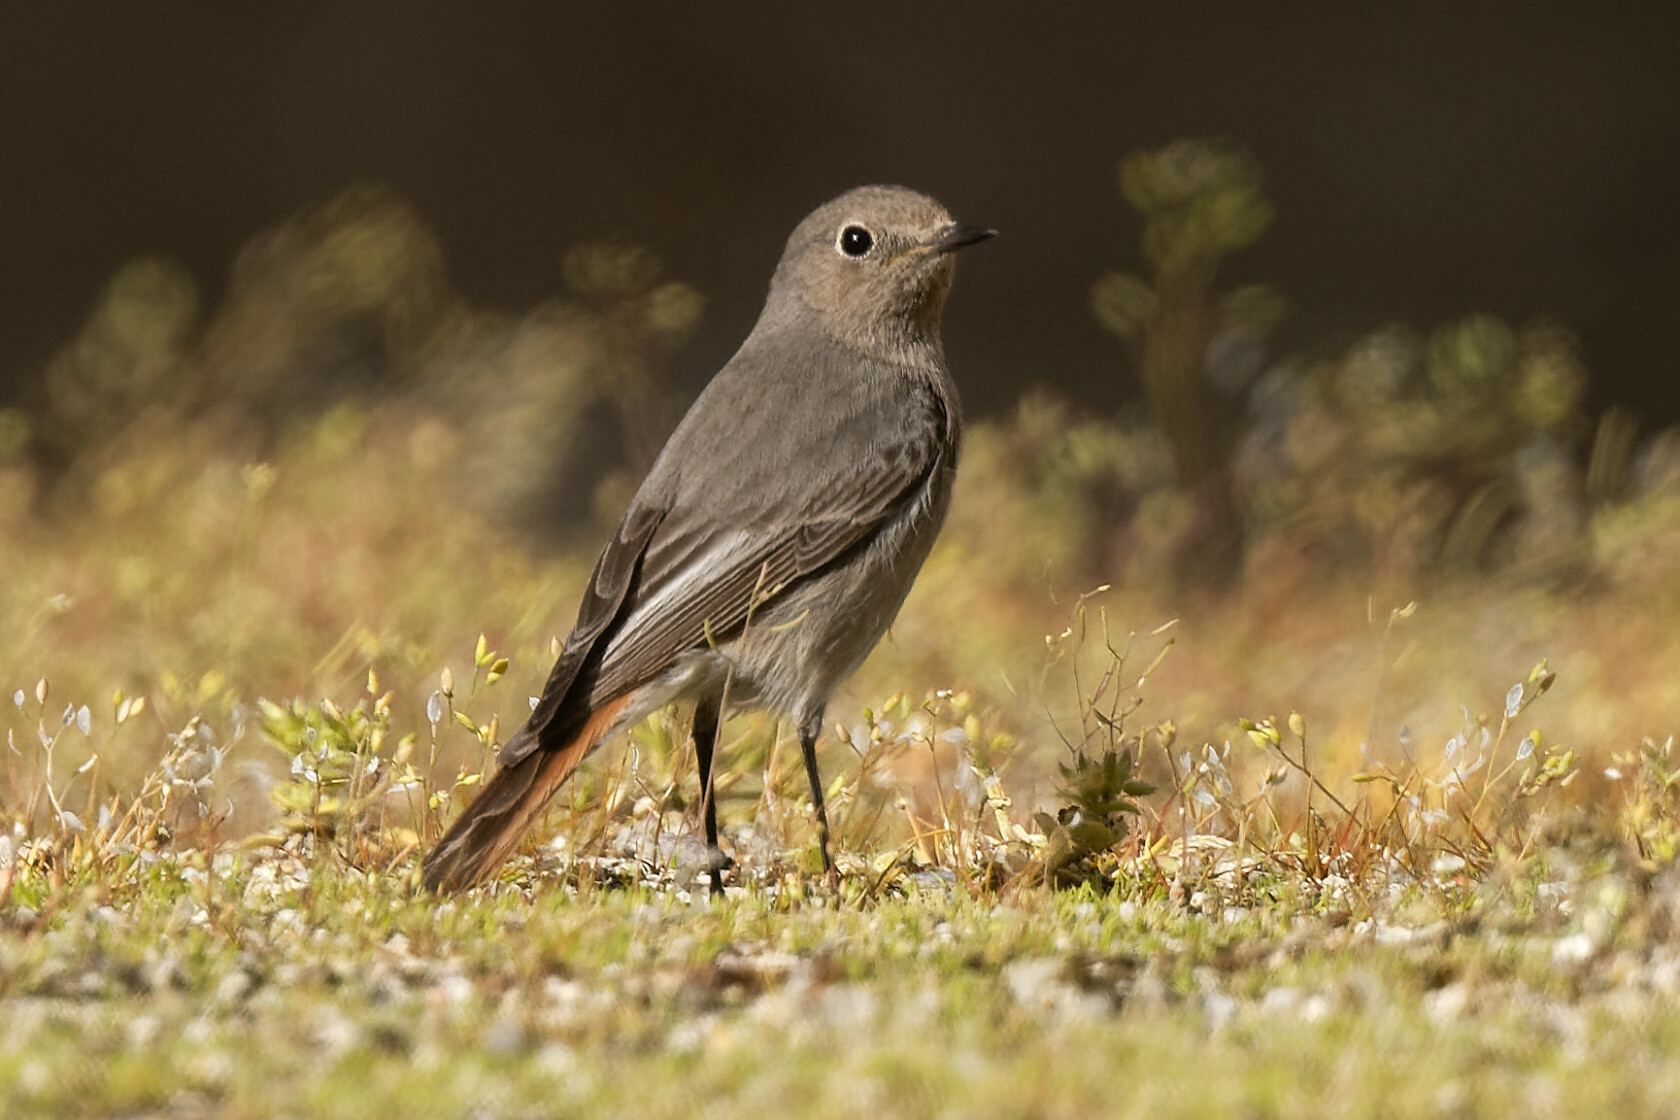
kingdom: Animalia
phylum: Chordata
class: Aves
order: Passeriformes
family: Muscicapidae
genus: Phoenicurus
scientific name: Phoenicurus ochruros
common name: Black redstart
